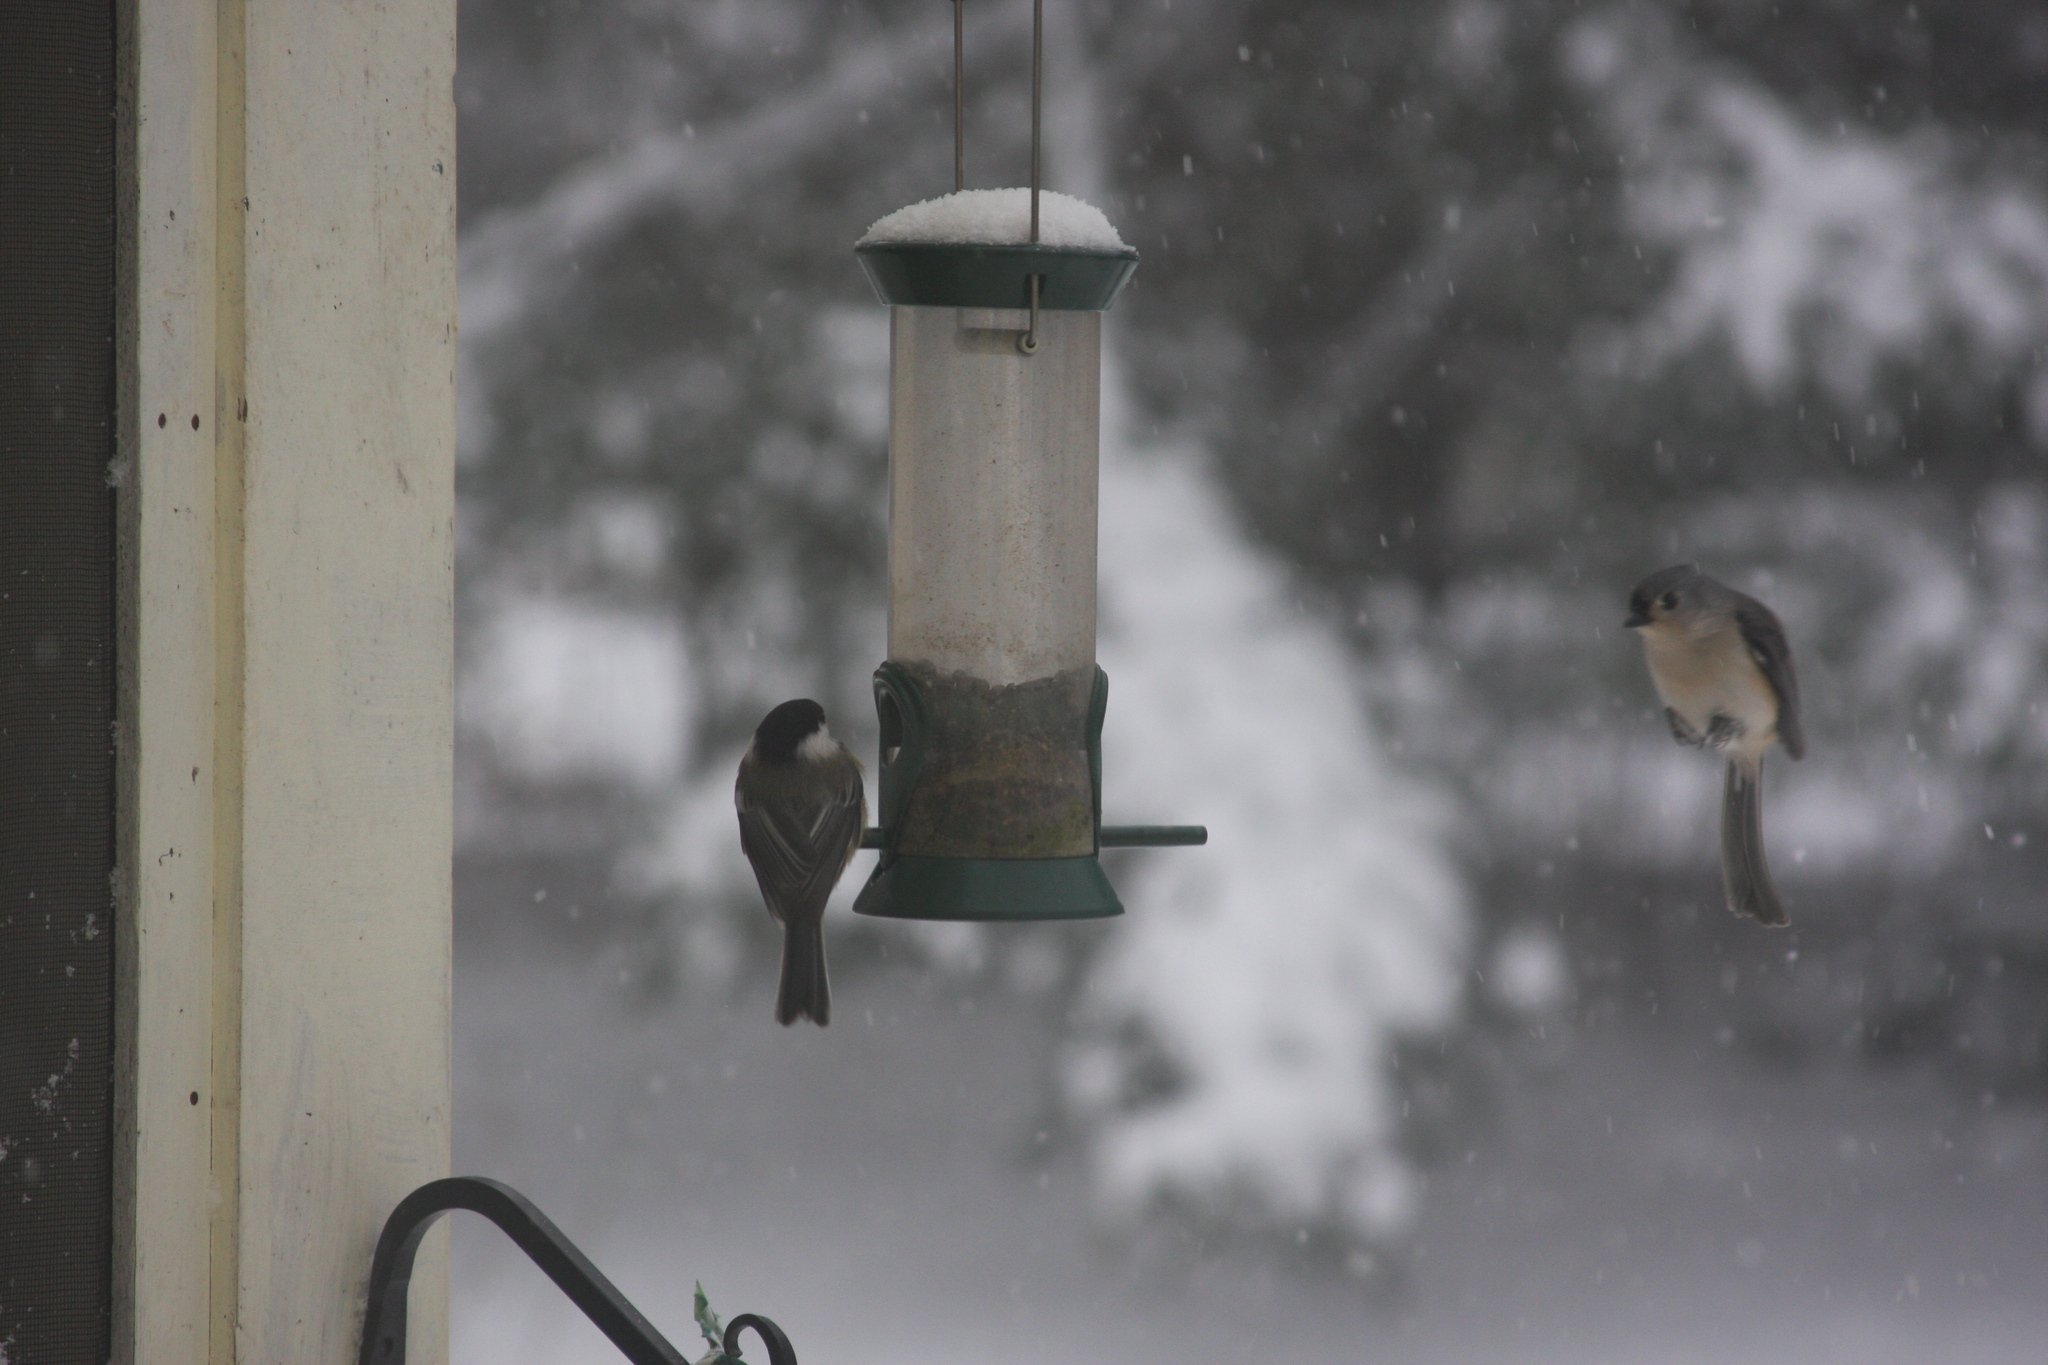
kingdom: Animalia
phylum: Chordata
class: Aves
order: Passeriformes
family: Paridae
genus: Baeolophus
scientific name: Baeolophus bicolor
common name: Tufted titmouse
